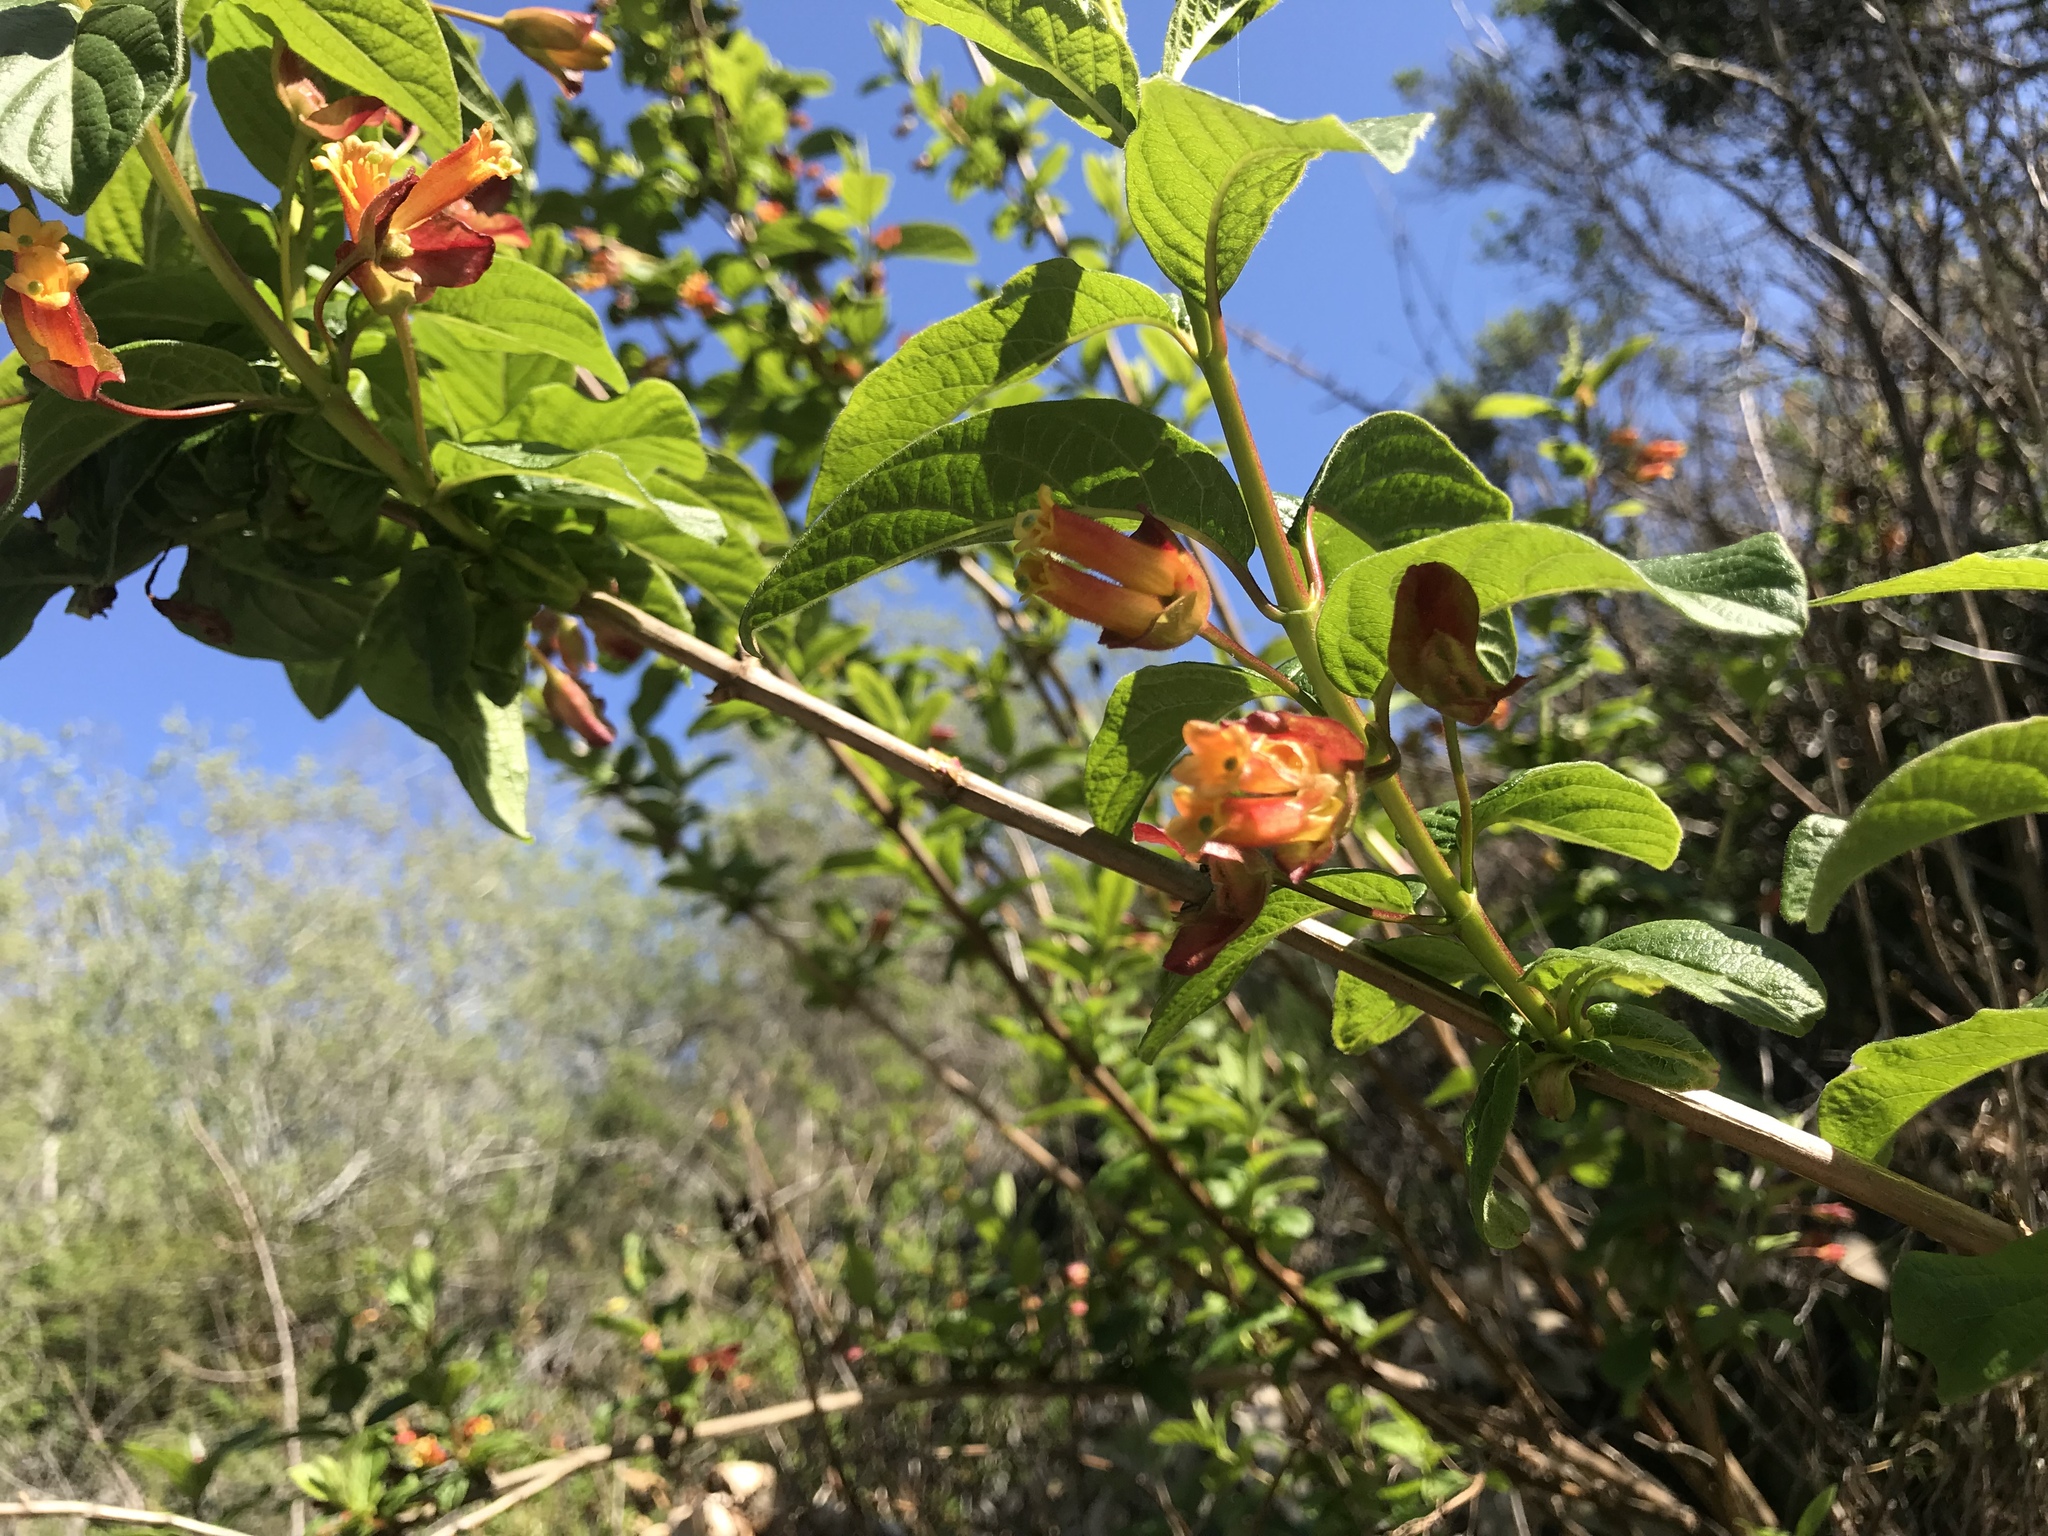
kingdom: Plantae
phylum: Tracheophyta
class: Magnoliopsida
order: Dipsacales
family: Caprifoliaceae
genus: Lonicera
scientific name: Lonicera involucrata
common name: Californian honeysuckle
